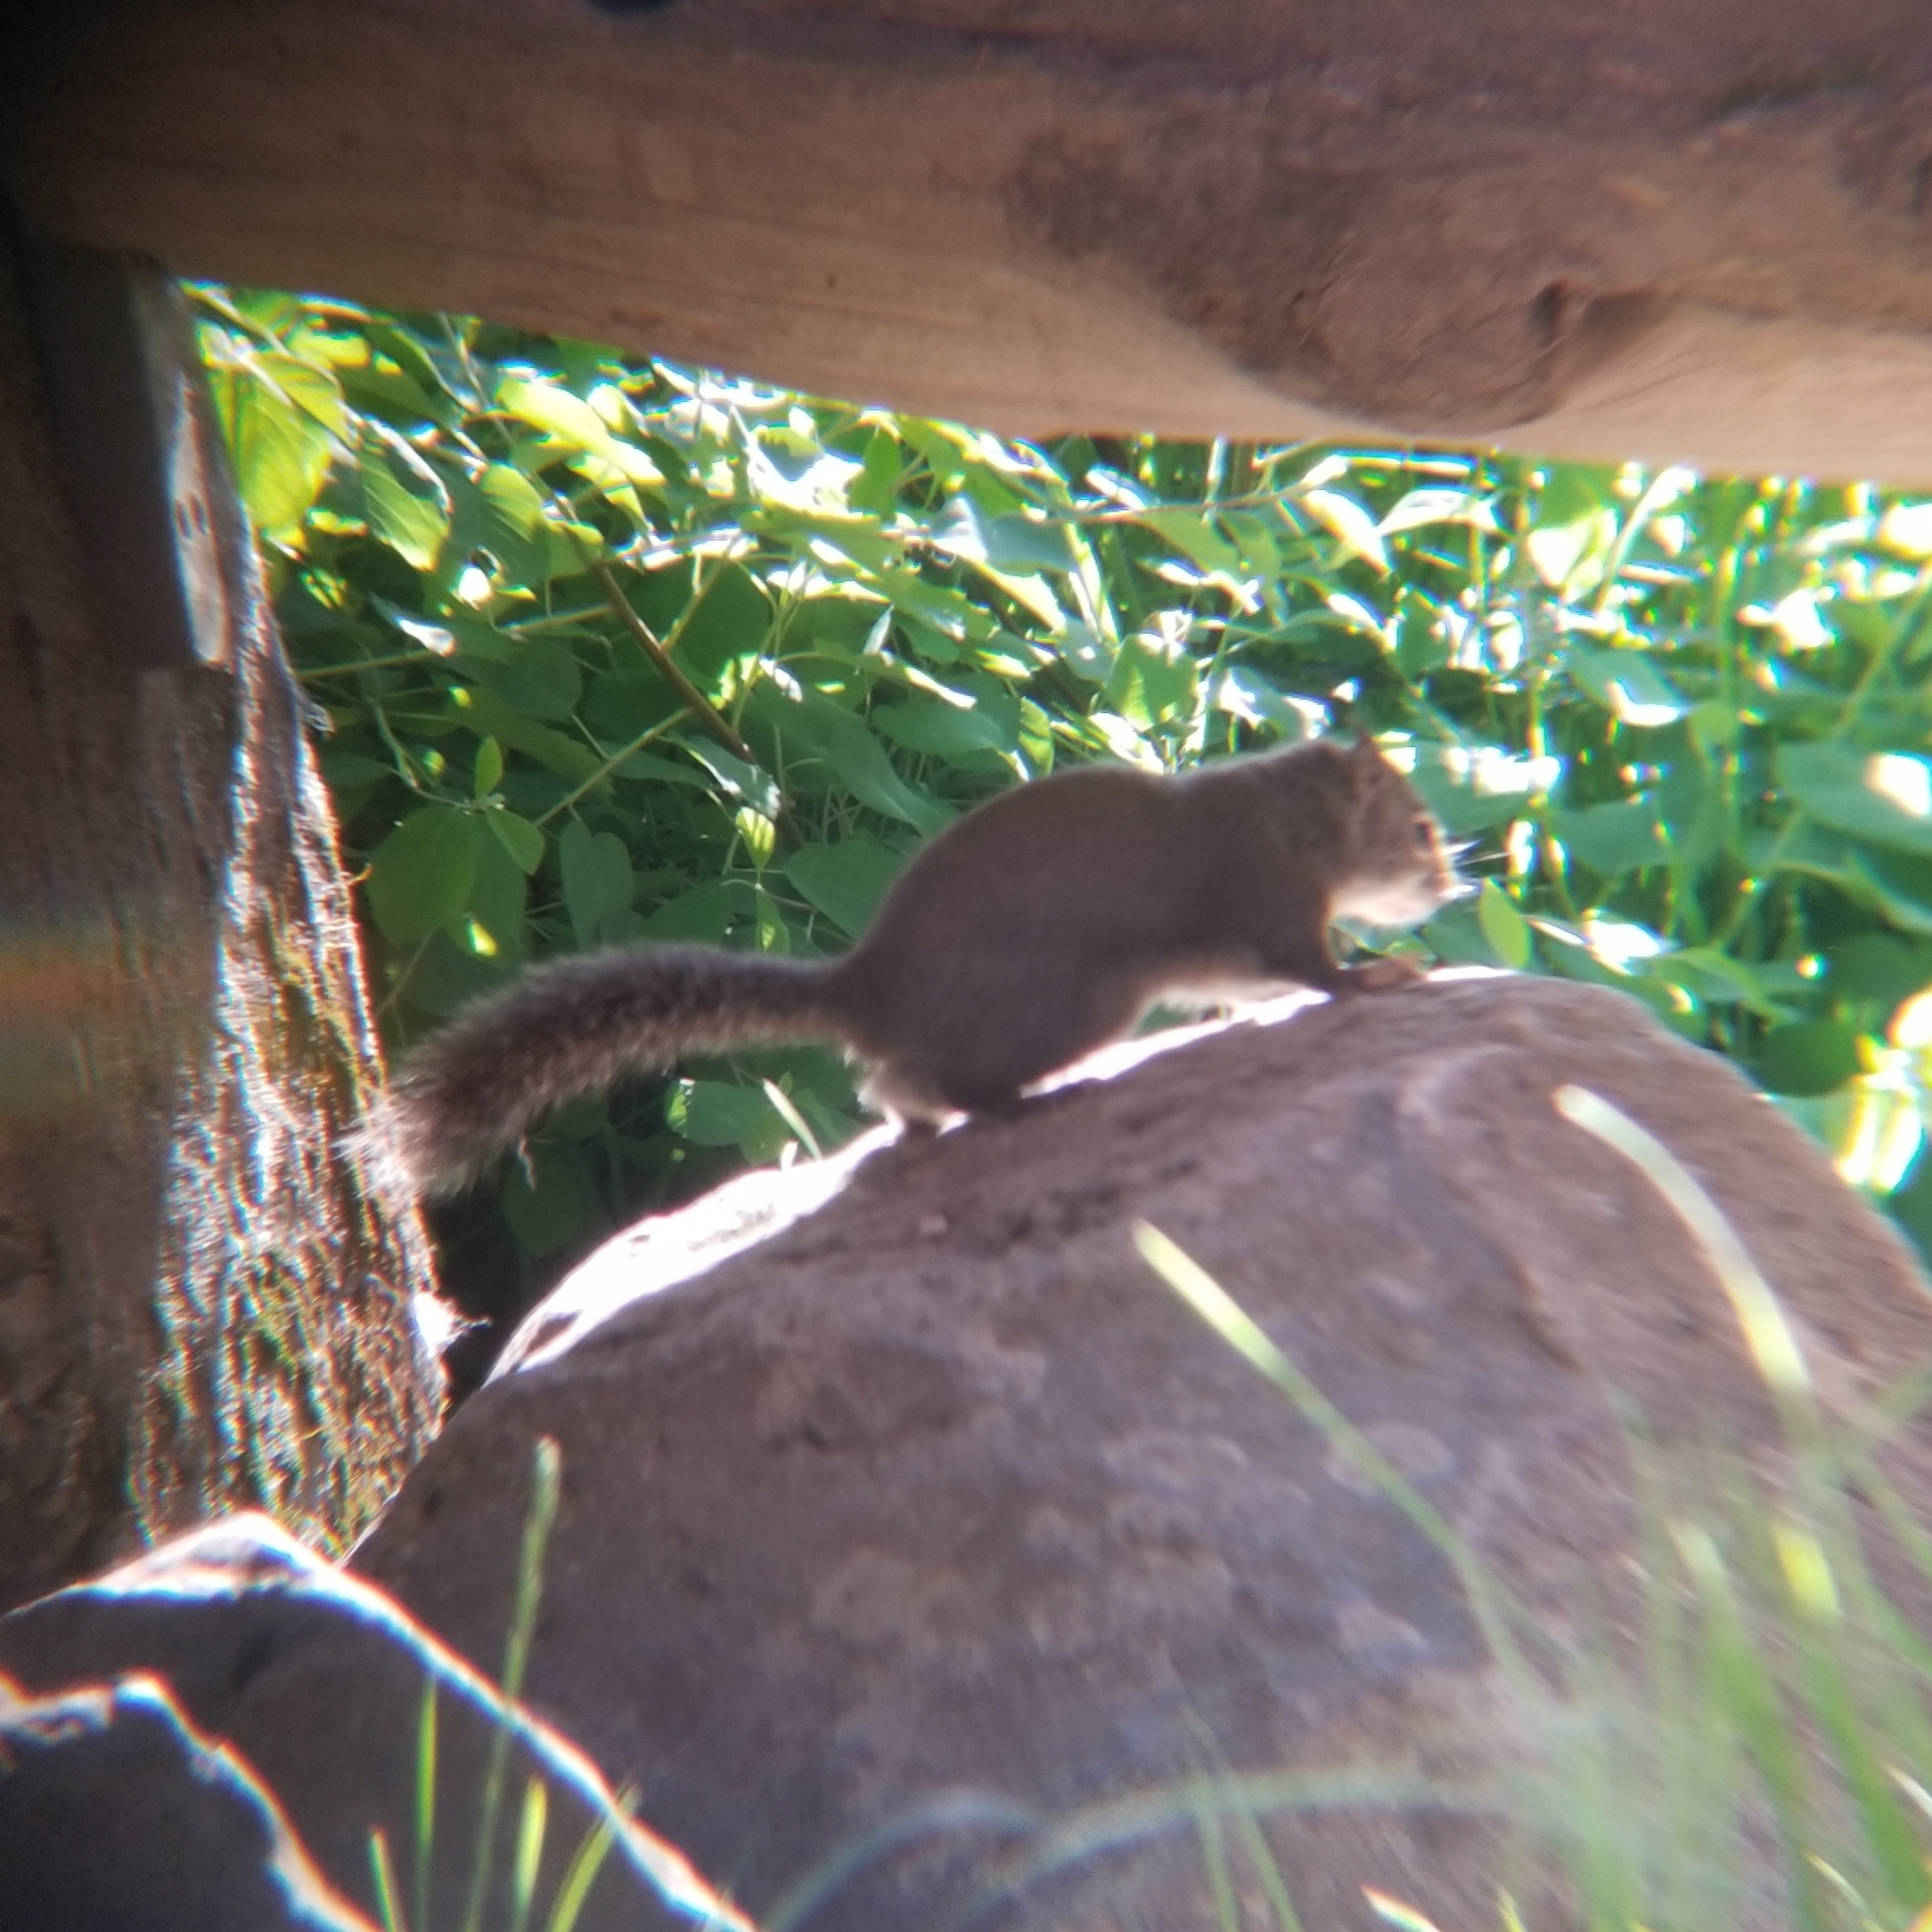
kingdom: Animalia
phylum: Chordata
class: Mammalia
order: Rodentia
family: Sciuridae
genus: Tamiasciurus
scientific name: Tamiasciurus douglasii
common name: Douglas's squirrel
